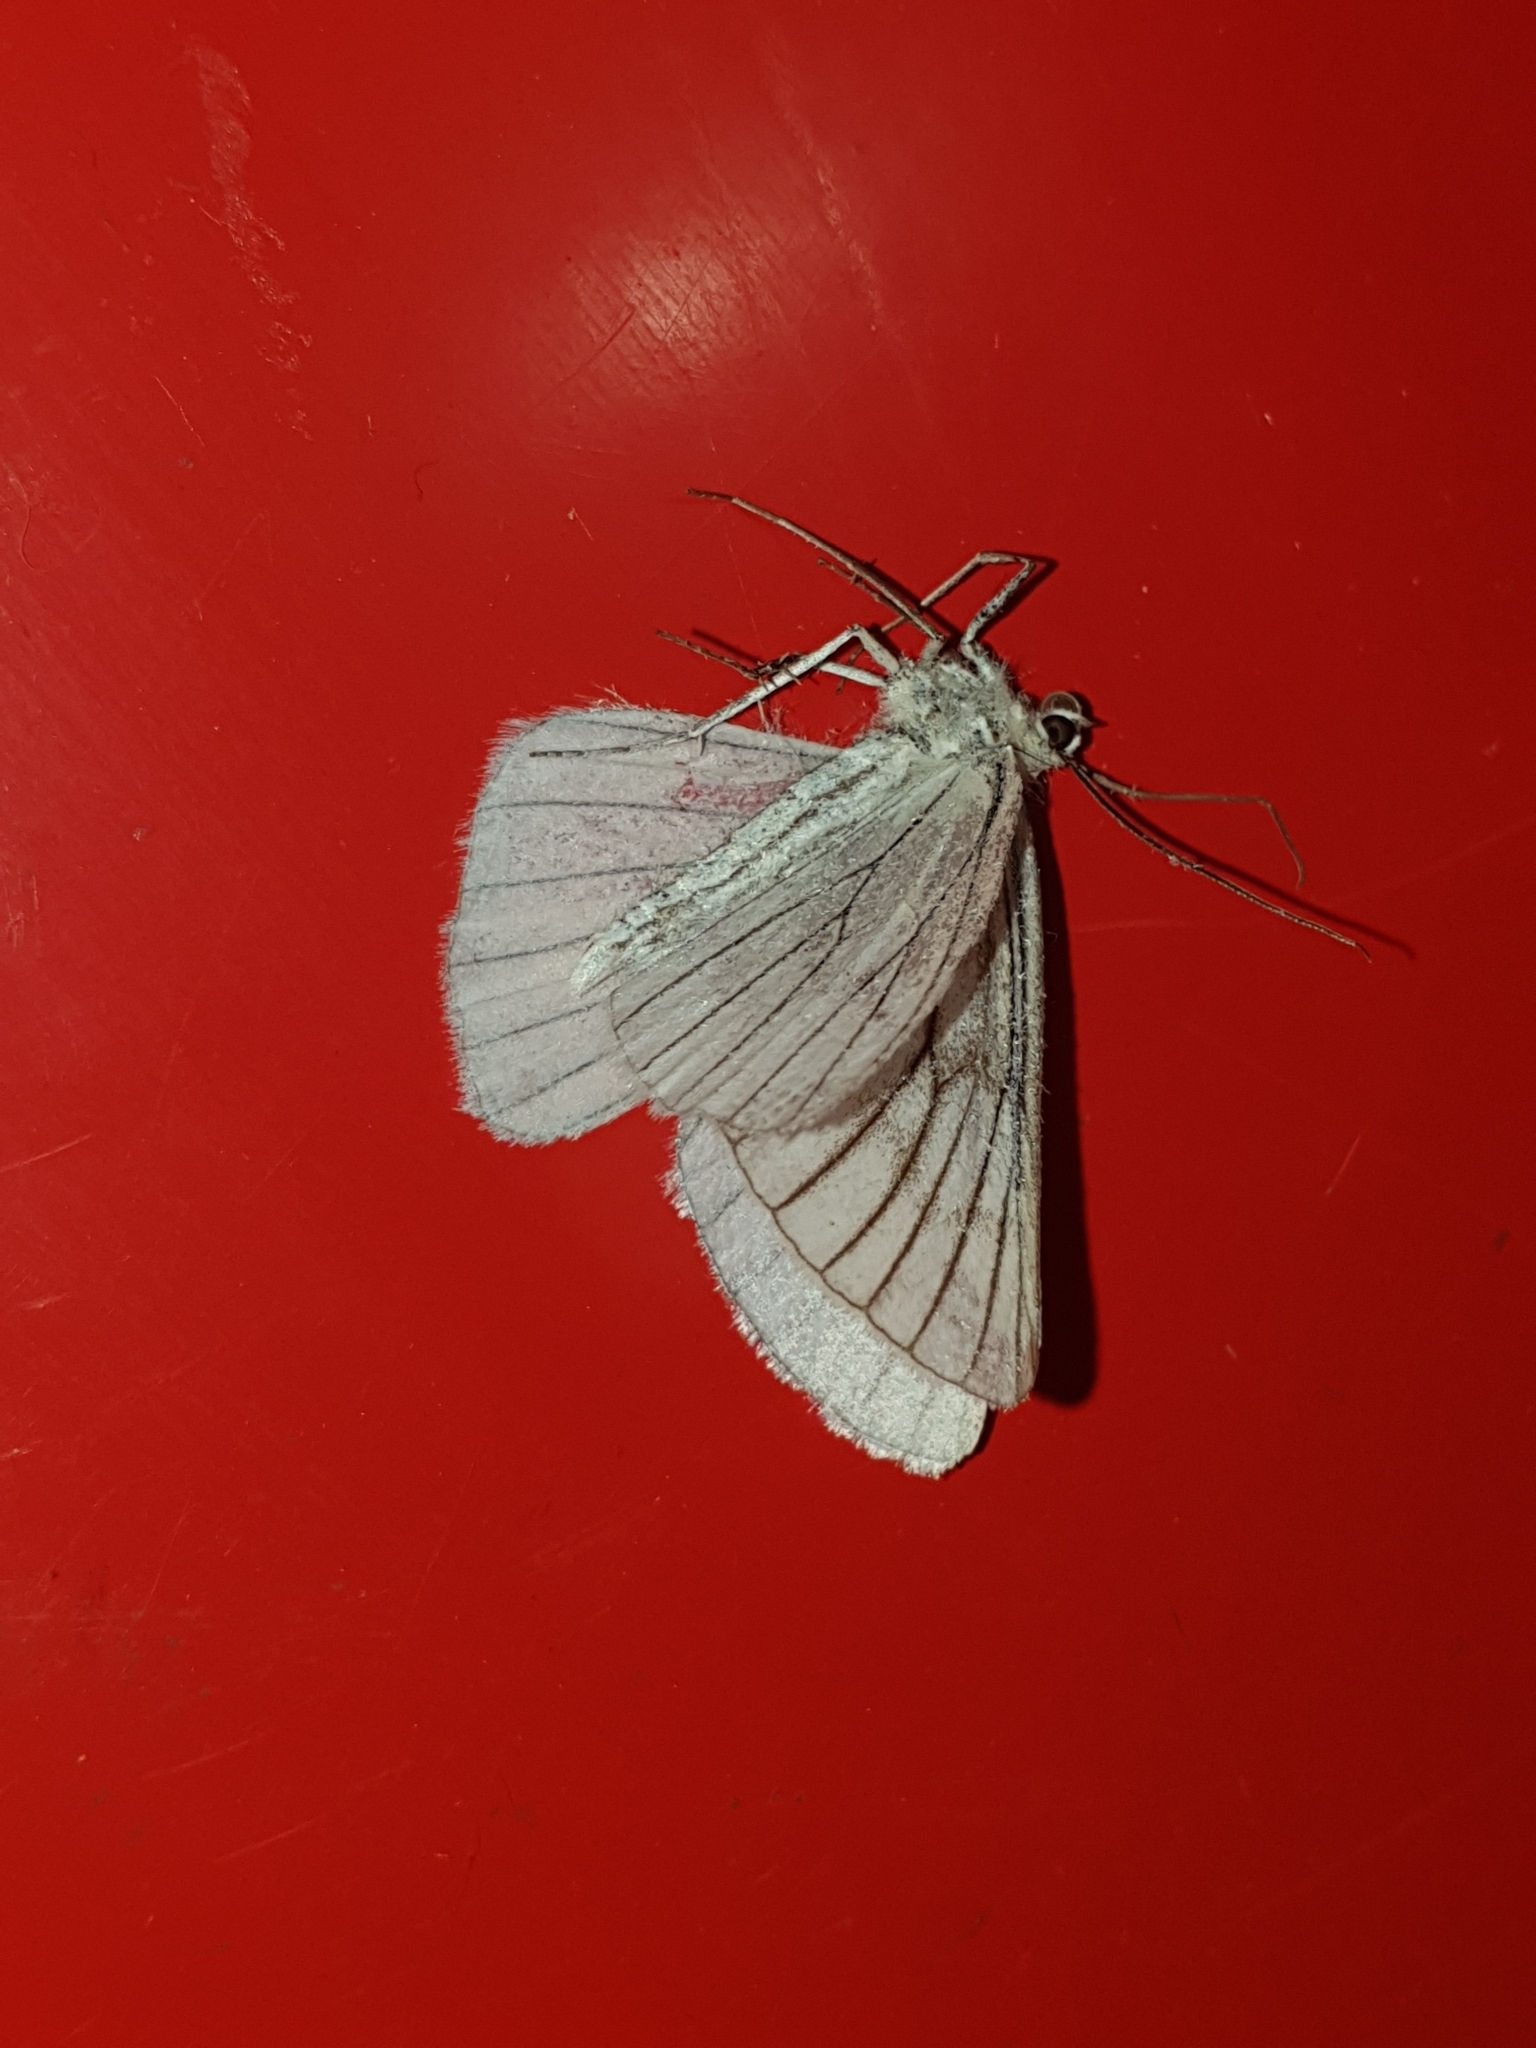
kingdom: Animalia
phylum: Arthropoda
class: Insecta
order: Lepidoptera
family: Geometridae
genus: Siona
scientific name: Siona lineata
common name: Black-veined moth
